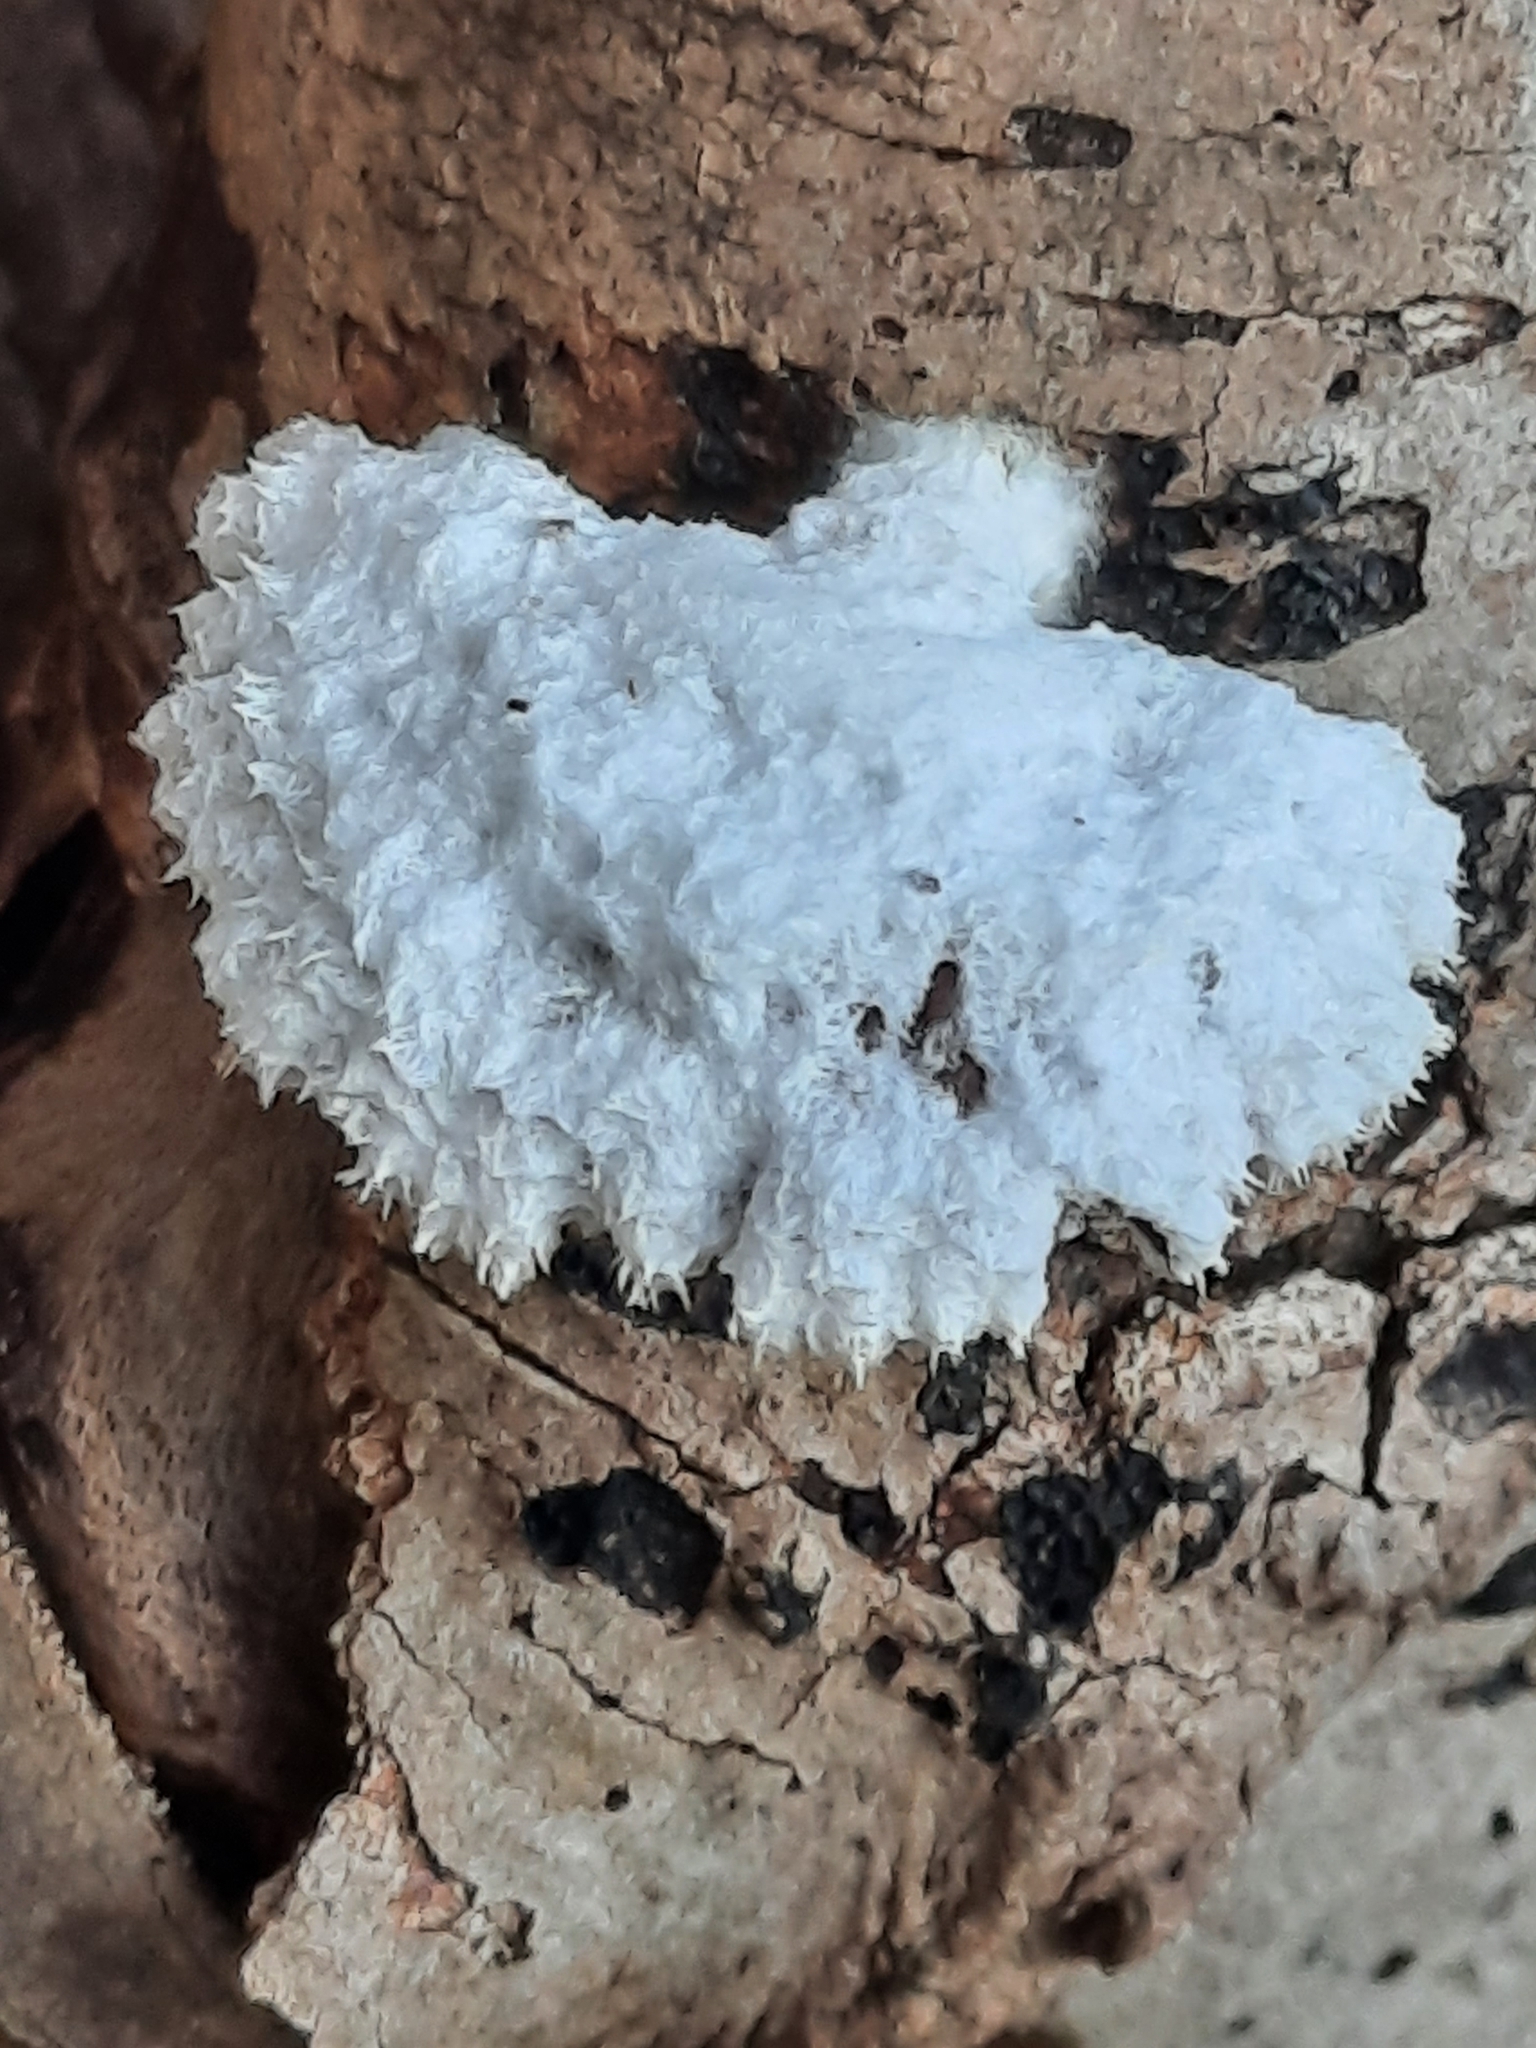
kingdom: Fungi
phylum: Basidiomycota
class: Agaricomycetes
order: Agaricales
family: Schizophyllaceae
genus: Schizophyllum
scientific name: Schizophyllum commune
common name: Common porecrust
